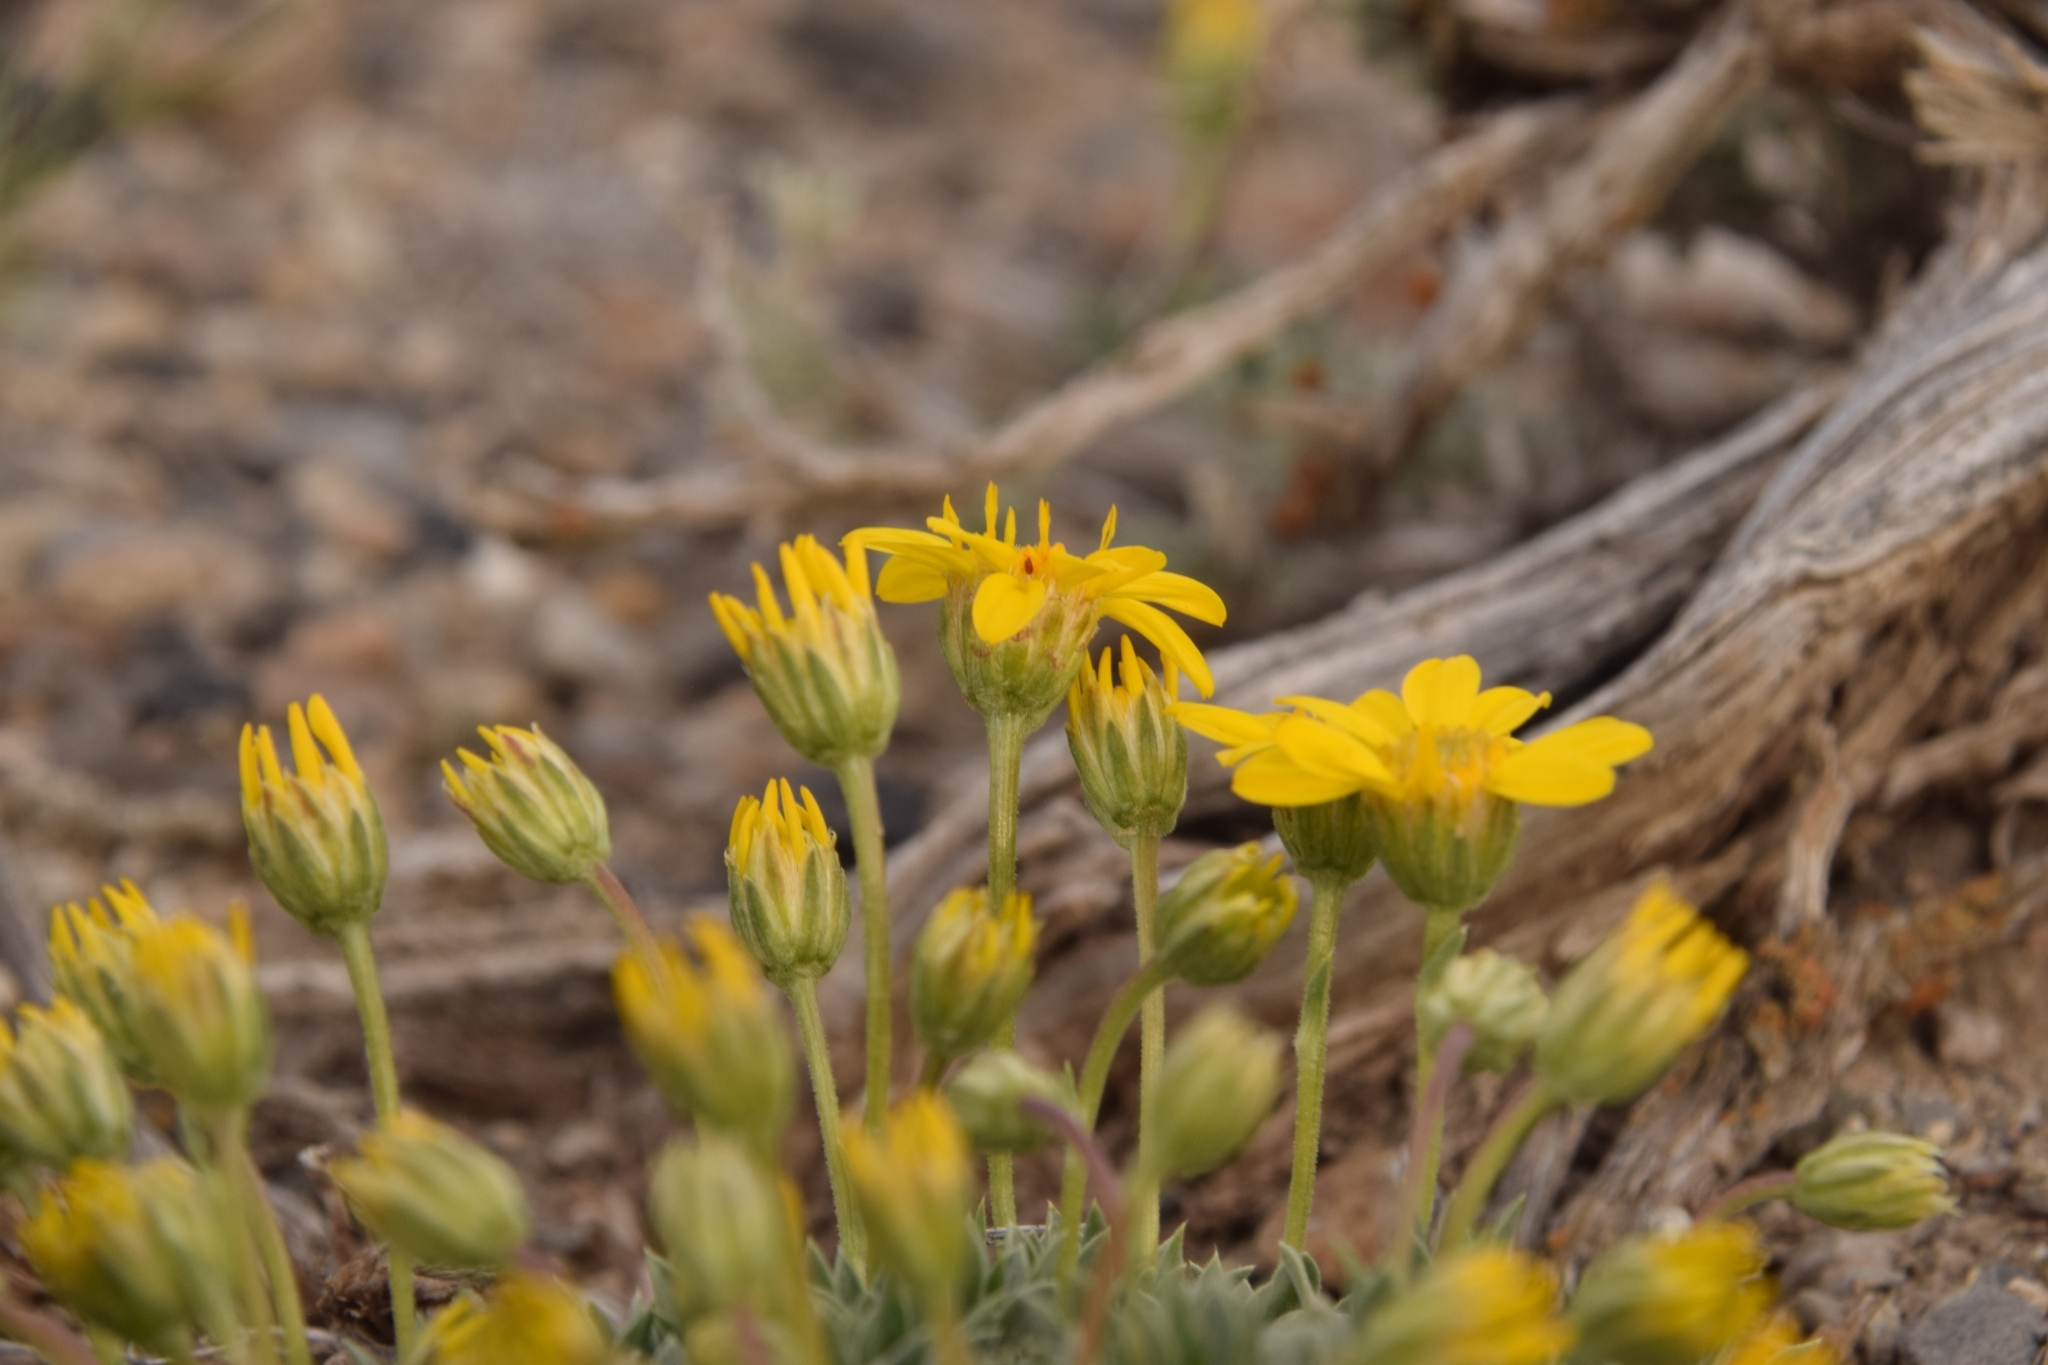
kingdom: Plantae
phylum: Tracheophyta
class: Magnoliopsida
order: Asterales
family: Asteraceae
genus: Stenotus
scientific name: Stenotus acaulis
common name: Stemless goldenweed
